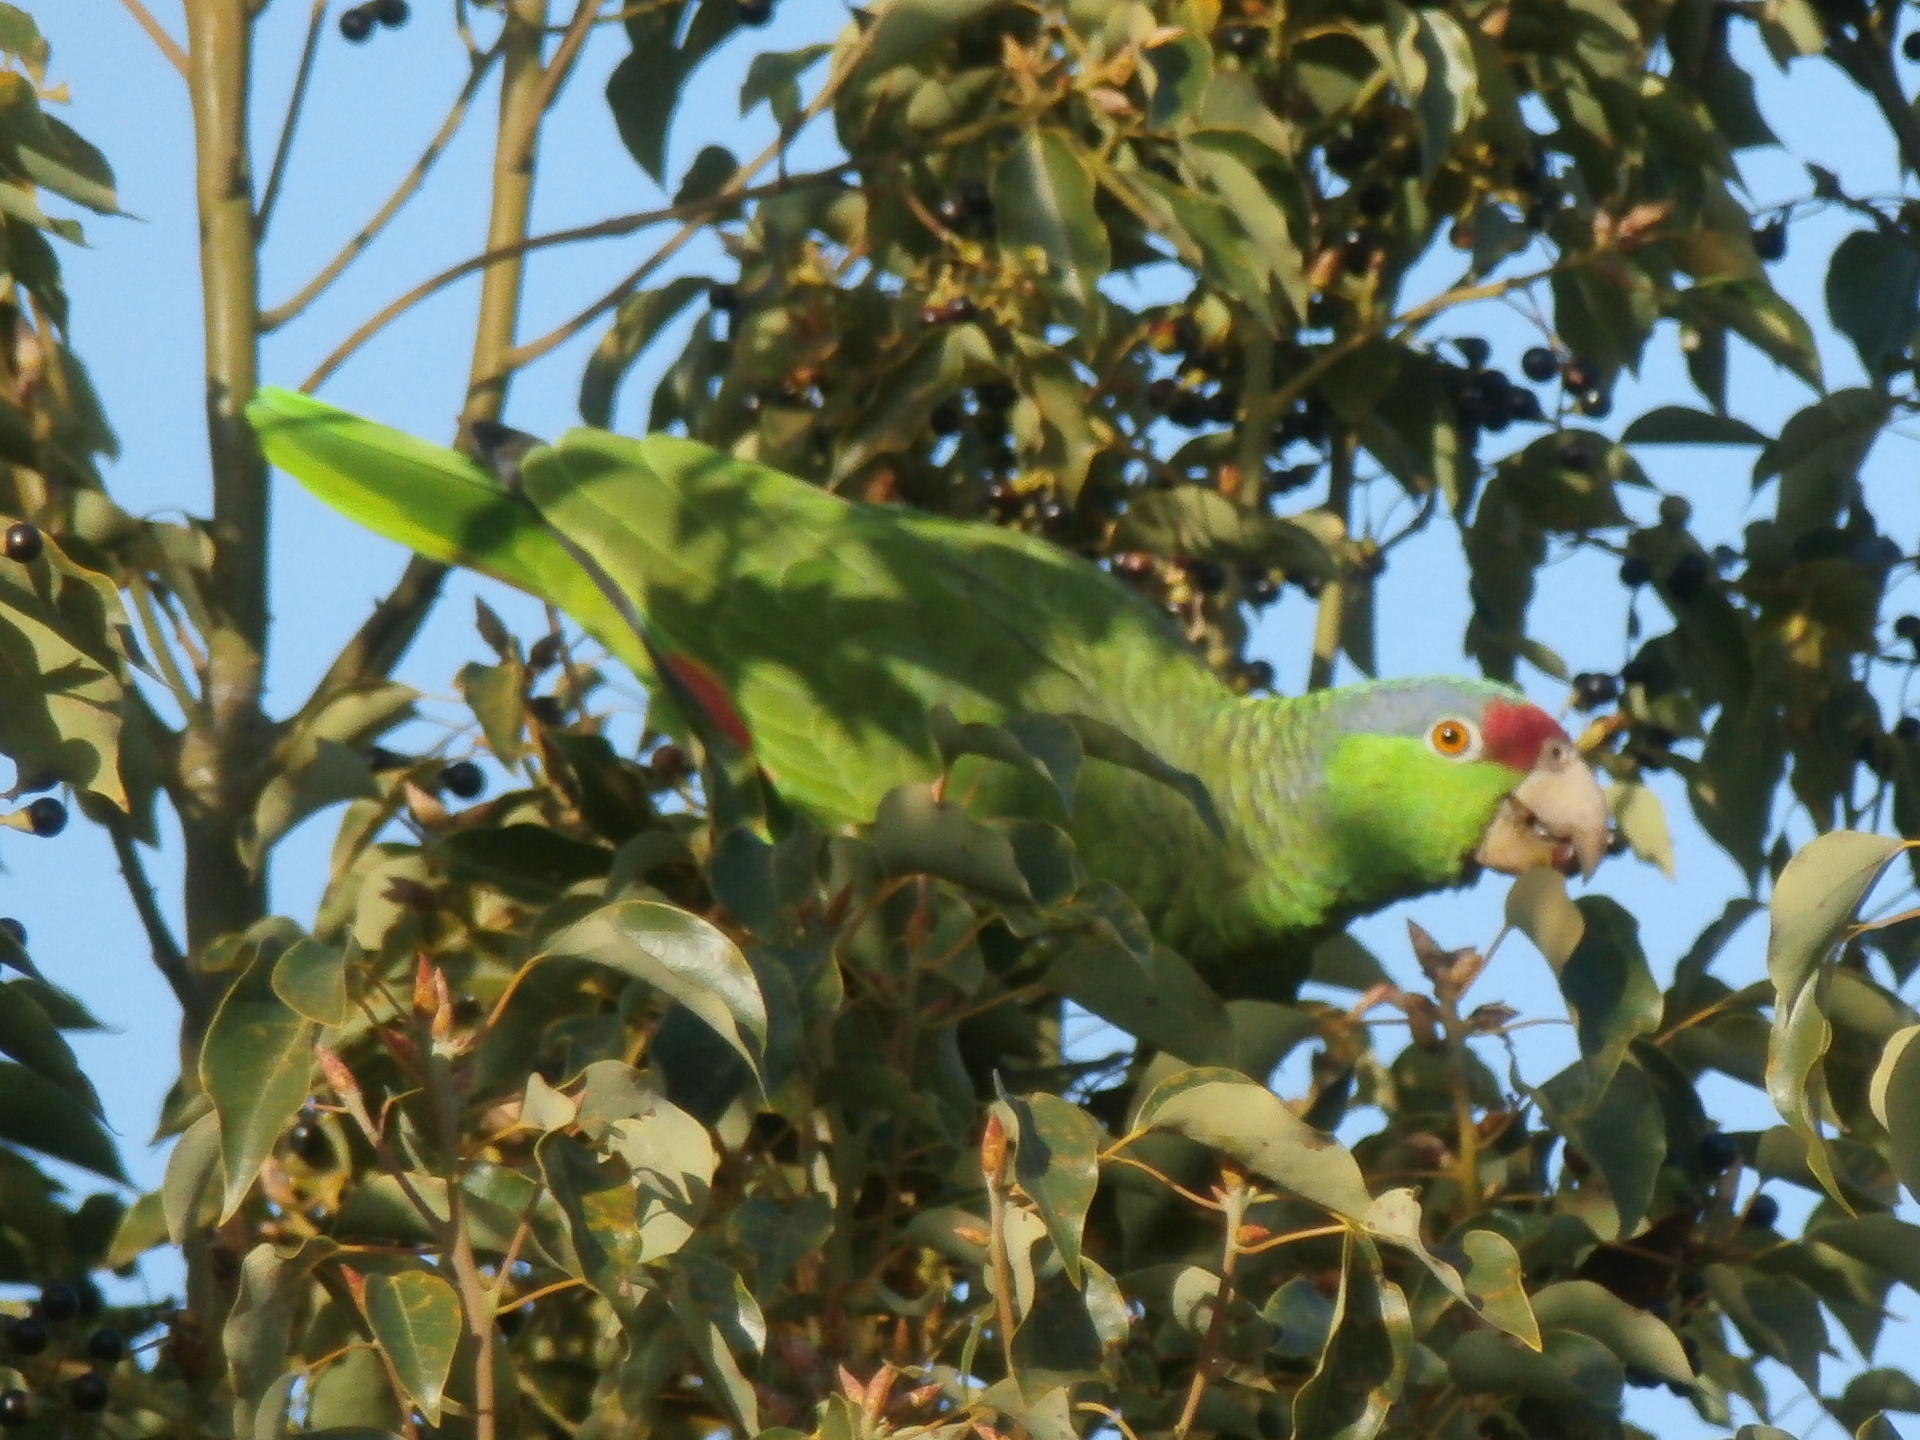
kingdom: Animalia
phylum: Chordata
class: Aves
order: Psittaciformes
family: Psittacidae
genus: Amazona
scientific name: Amazona
